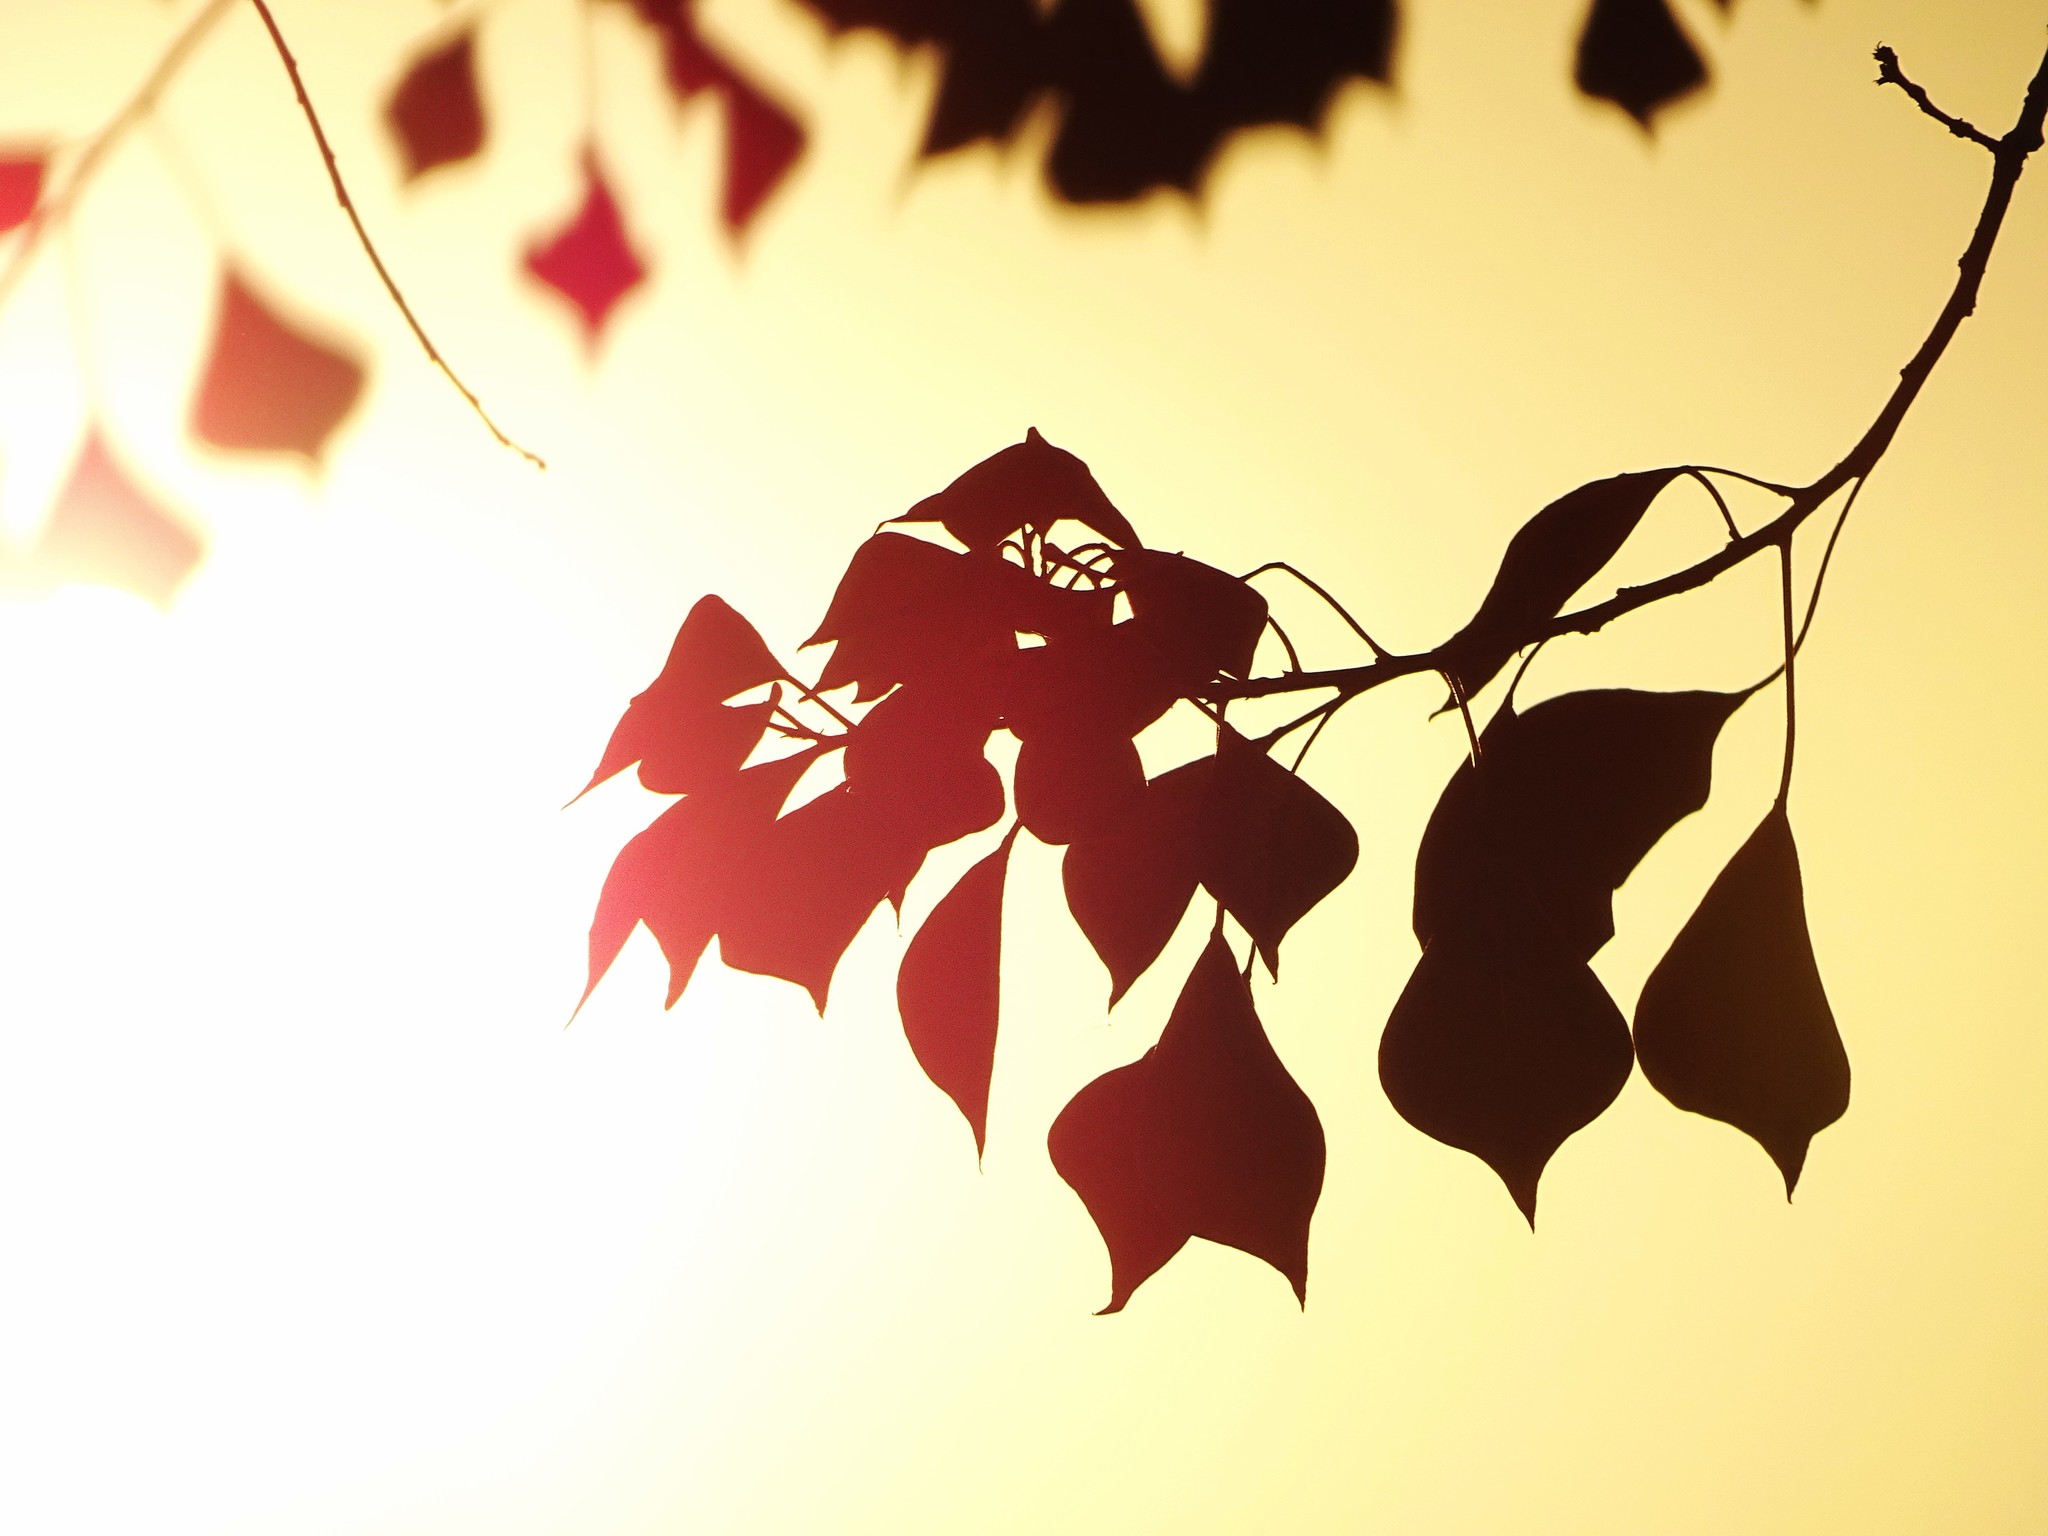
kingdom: Plantae
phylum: Tracheophyta
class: Magnoliopsida
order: Malpighiales
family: Euphorbiaceae
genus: Triadica
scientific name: Triadica sebifera
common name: Chinese tallow
